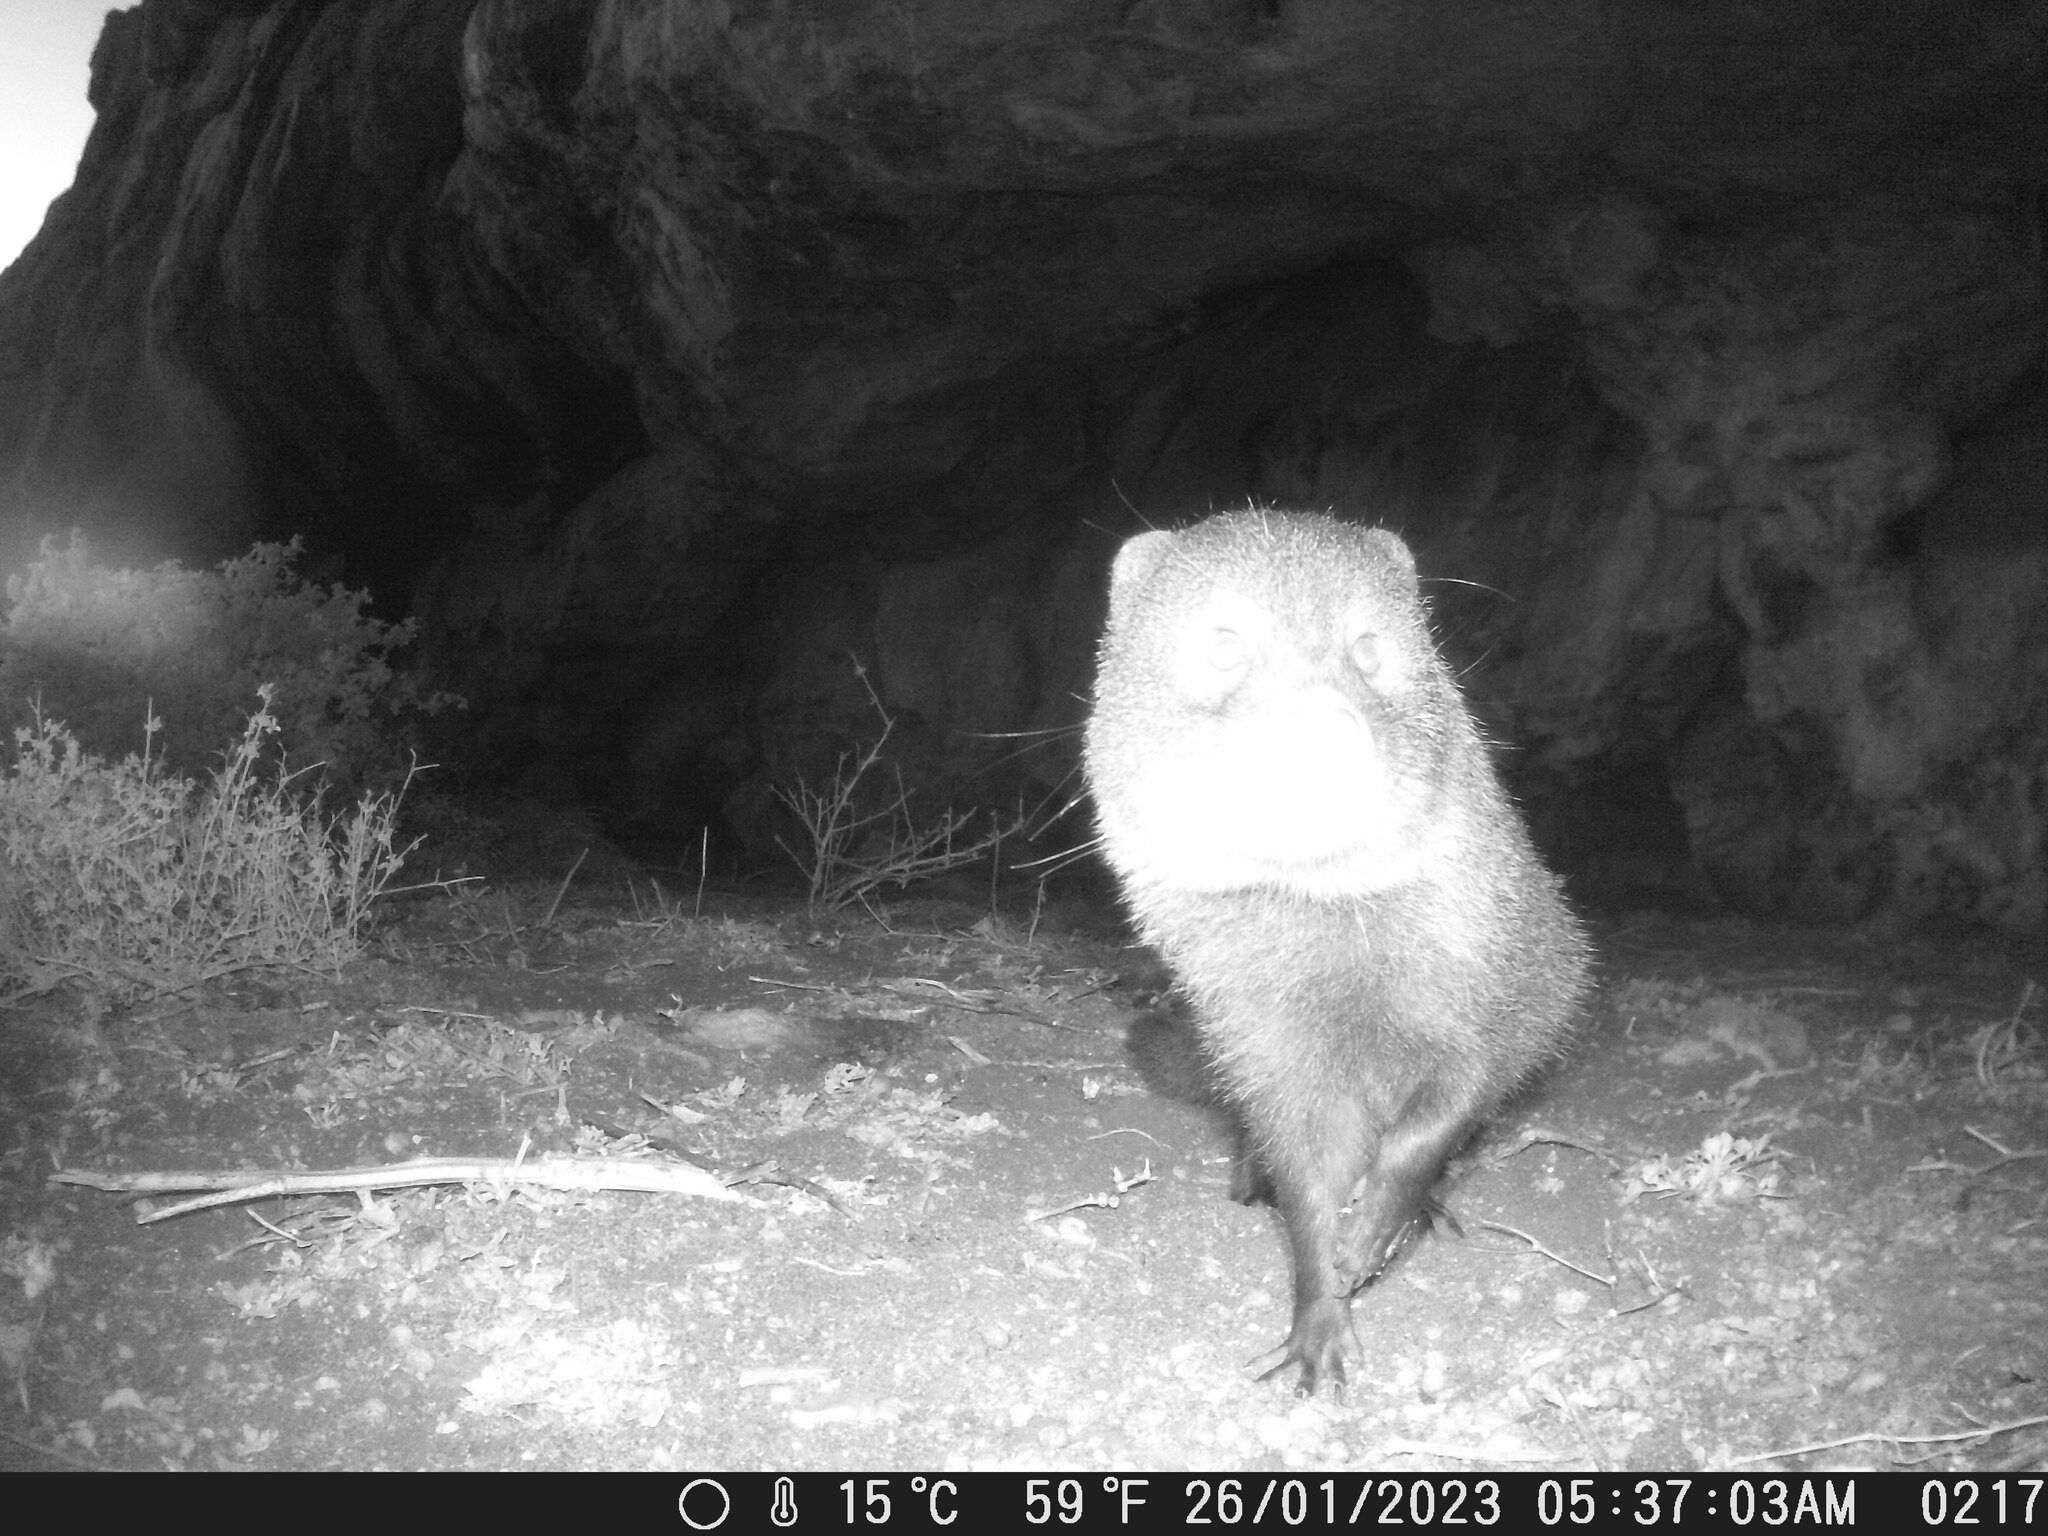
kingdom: Animalia
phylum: Chordata
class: Mammalia
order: Carnivora
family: Herpestidae
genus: Atilax
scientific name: Atilax paludinosus
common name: Marsh mongoose
